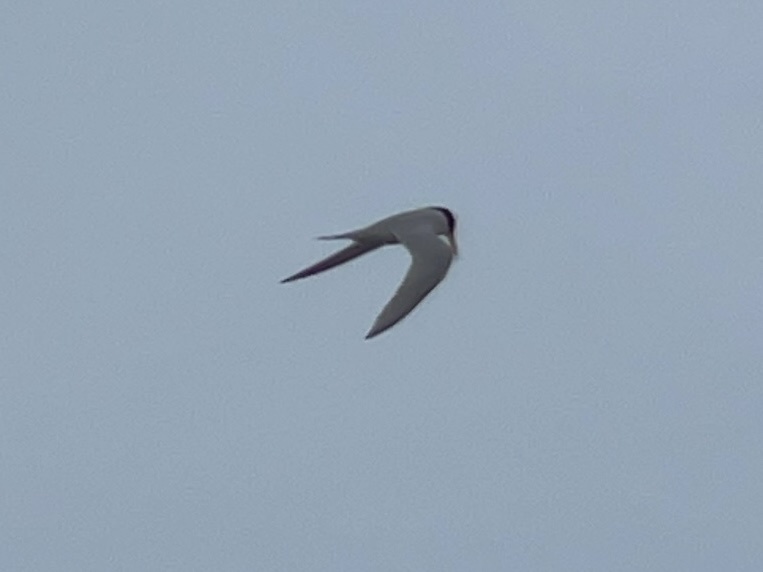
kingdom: Animalia
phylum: Chordata
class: Aves
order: Charadriiformes
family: Laridae
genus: Sternula
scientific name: Sternula antillarum
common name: Least tern
